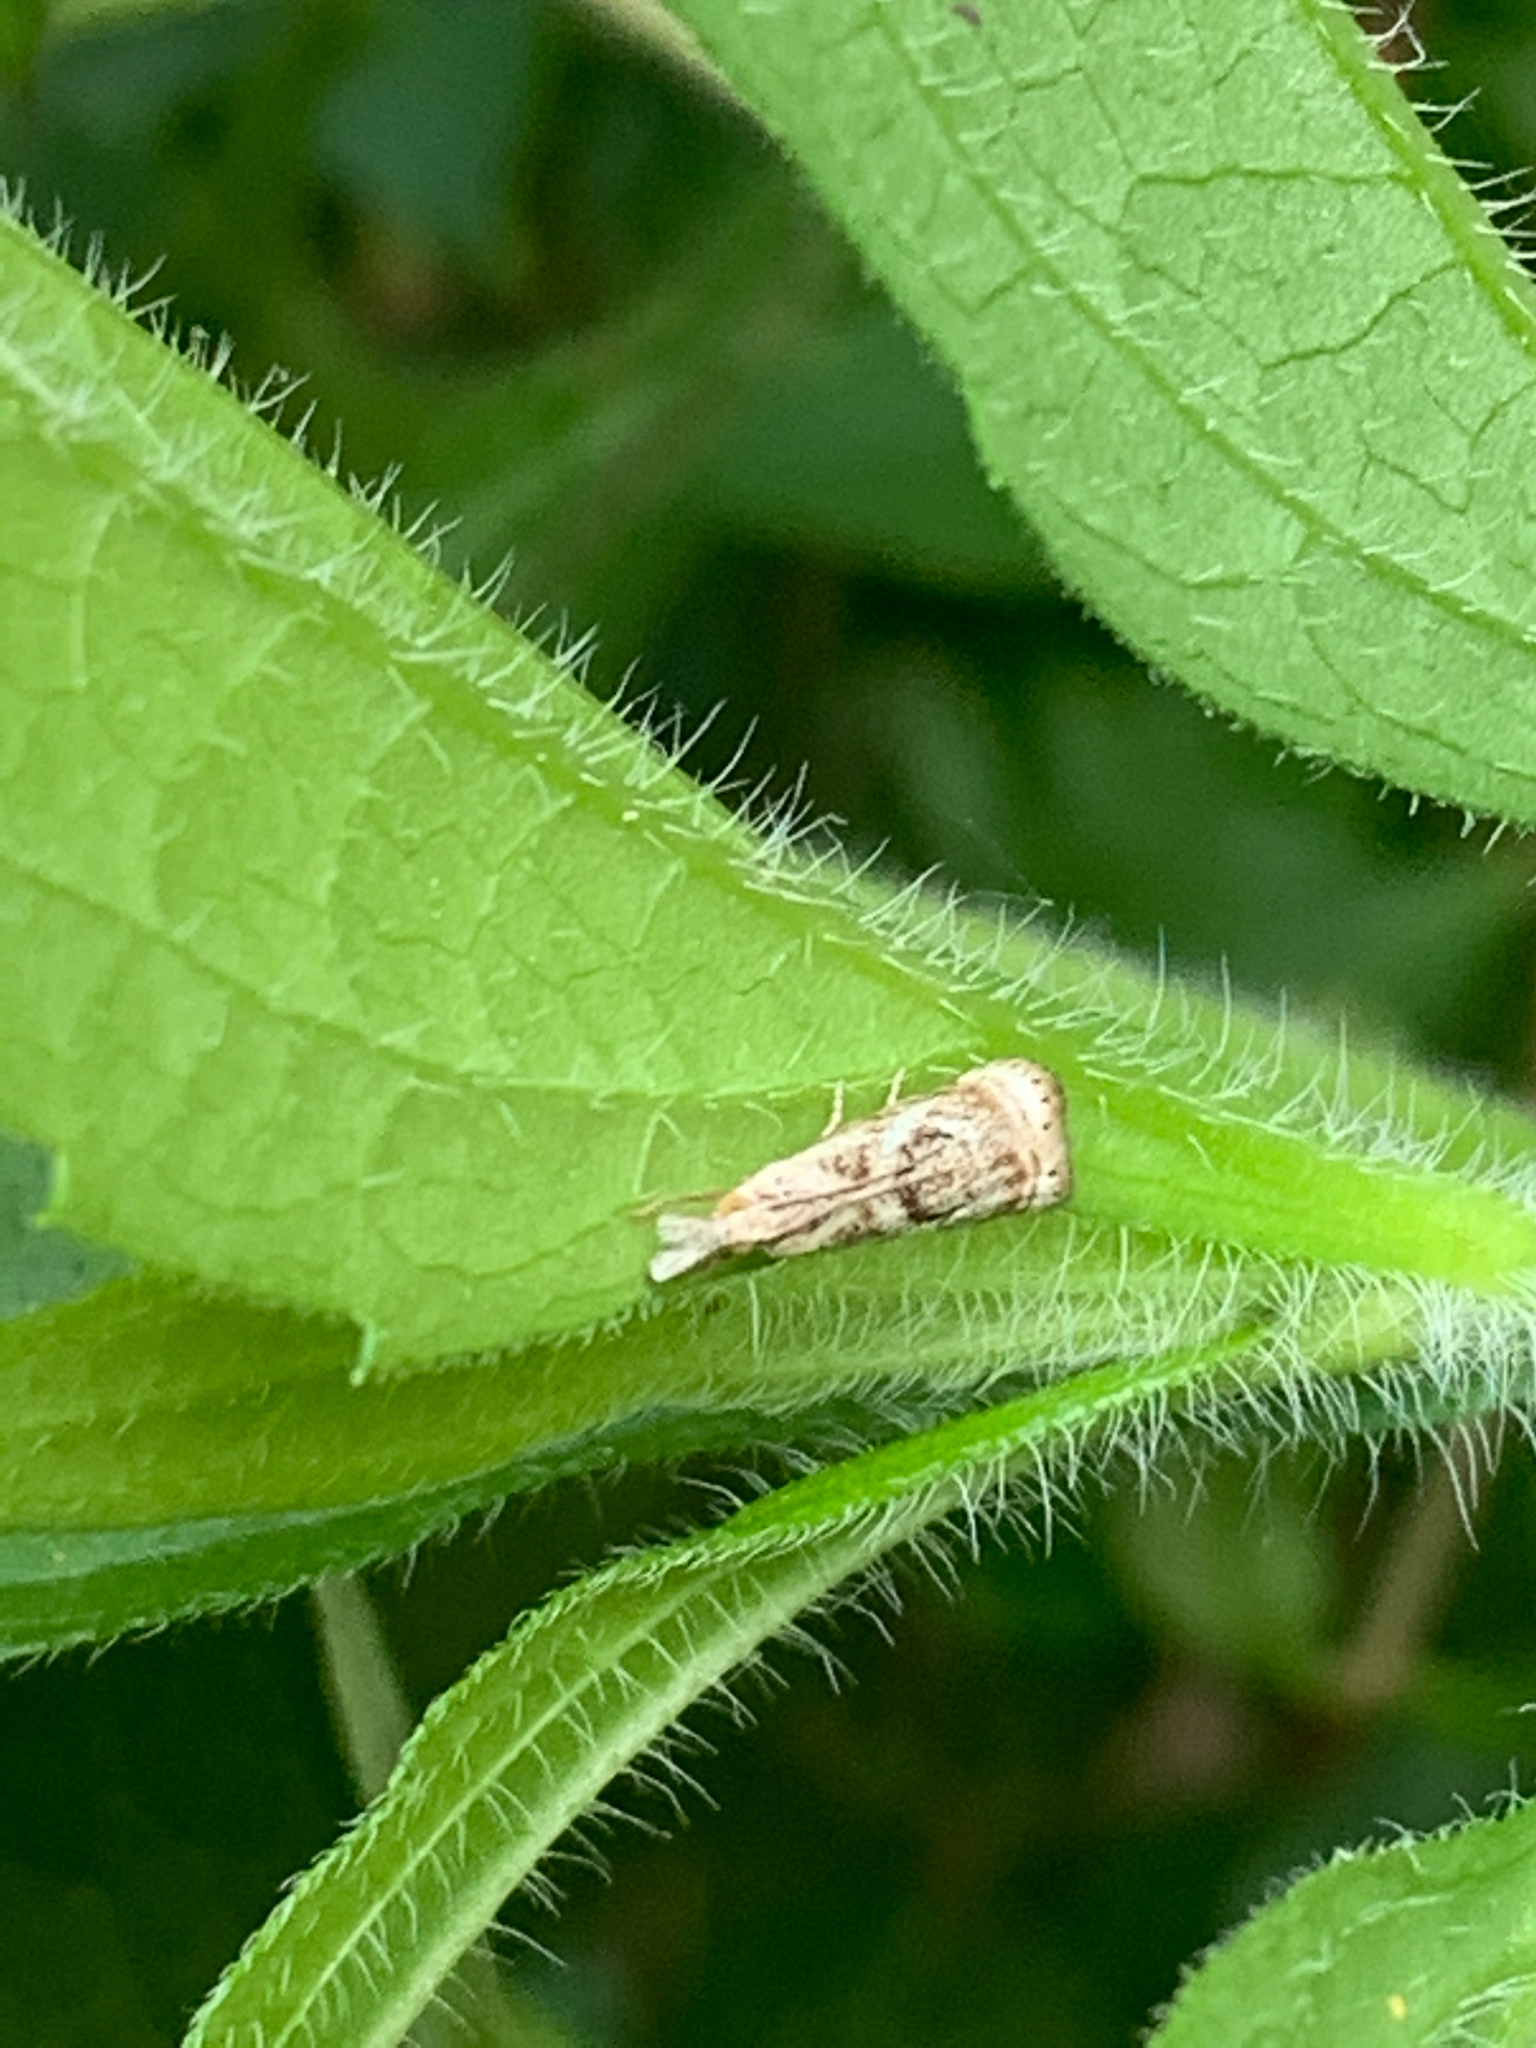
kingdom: Animalia
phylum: Arthropoda
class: Insecta
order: Lepidoptera
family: Crambidae
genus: Microcrambus
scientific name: Microcrambus elegans
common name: Elegant grass-veneer
